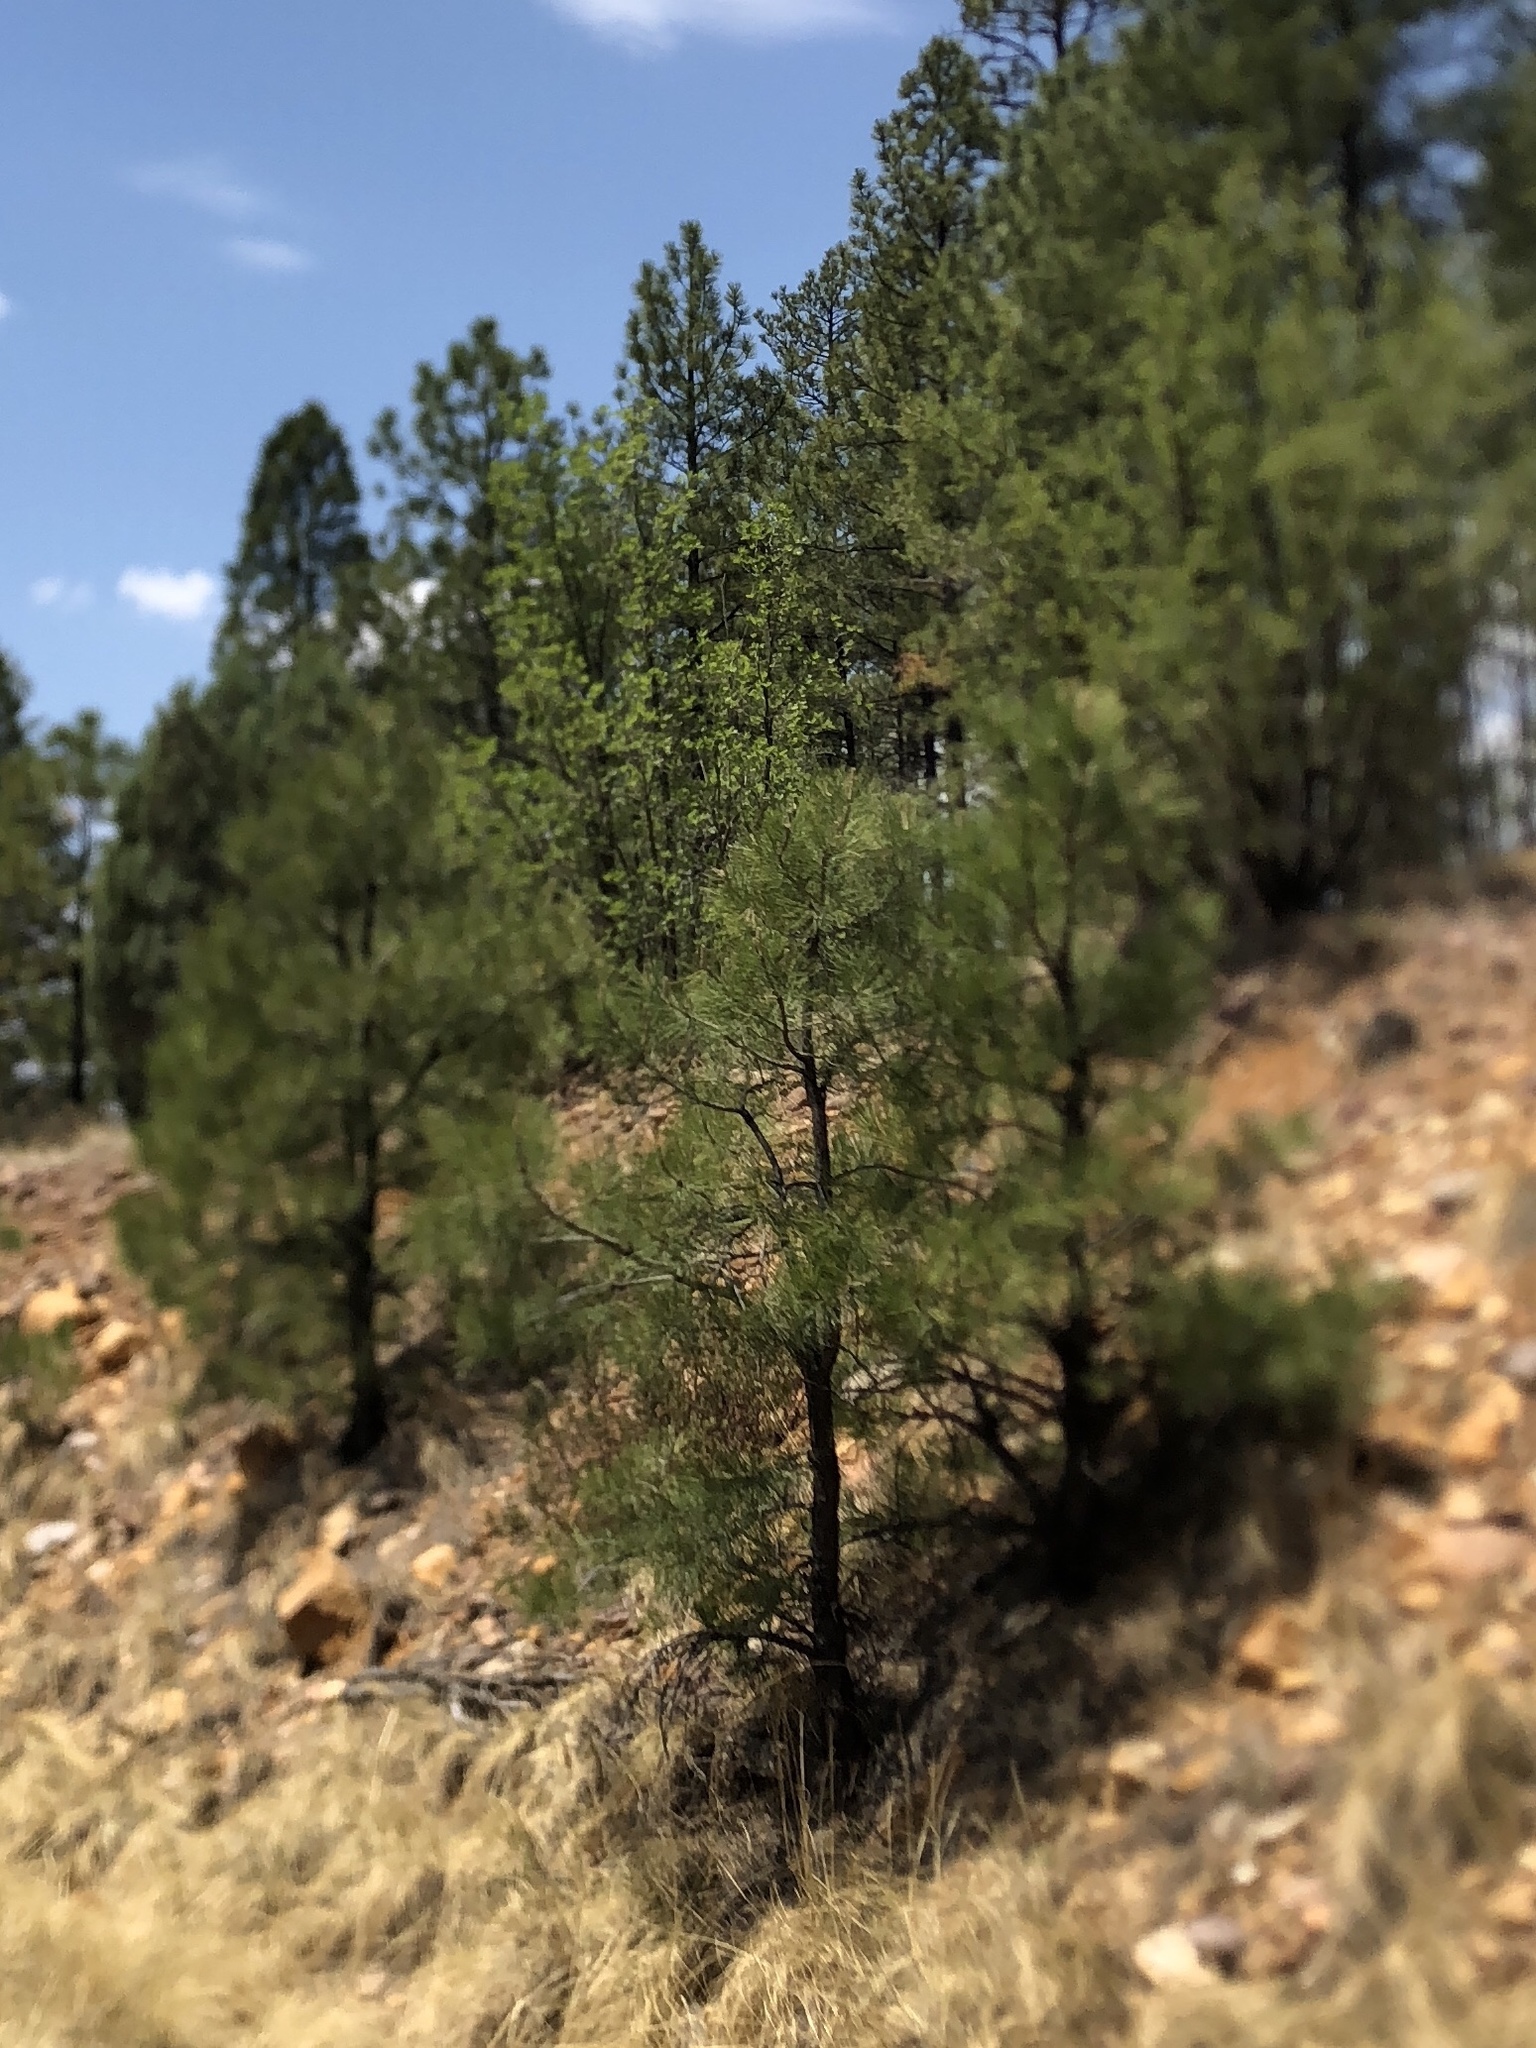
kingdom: Plantae
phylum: Tracheophyta
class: Pinopsida
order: Pinales
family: Pinaceae
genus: Pinus
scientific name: Pinus ponderosa
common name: Western yellow-pine
